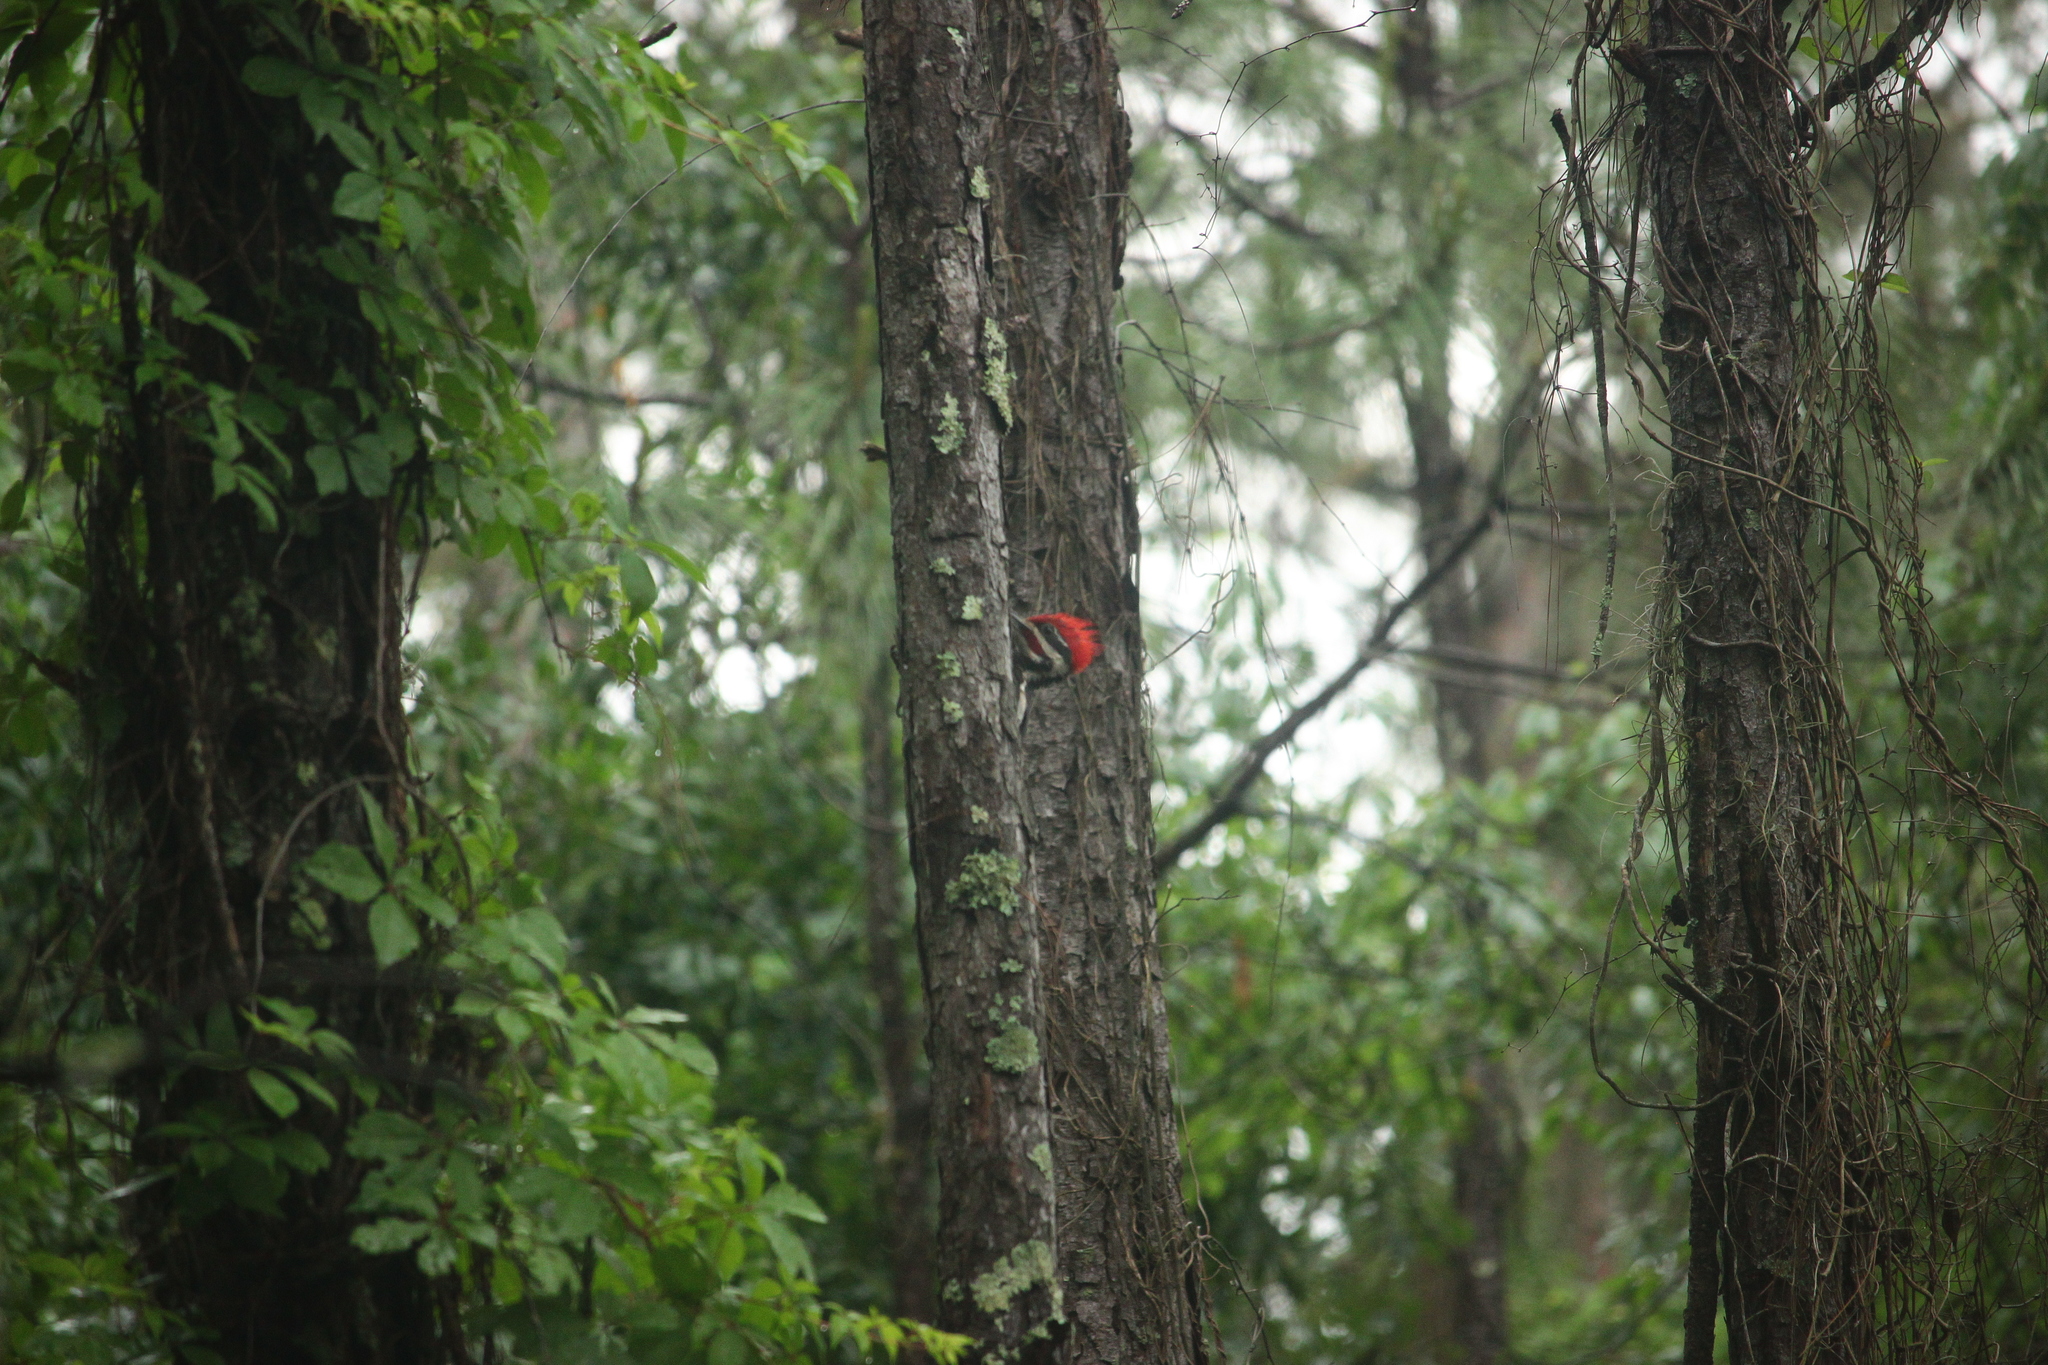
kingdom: Animalia
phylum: Chordata
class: Aves
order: Piciformes
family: Picidae
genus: Dryocopus
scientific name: Dryocopus pileatus
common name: Pileated woodpecker
